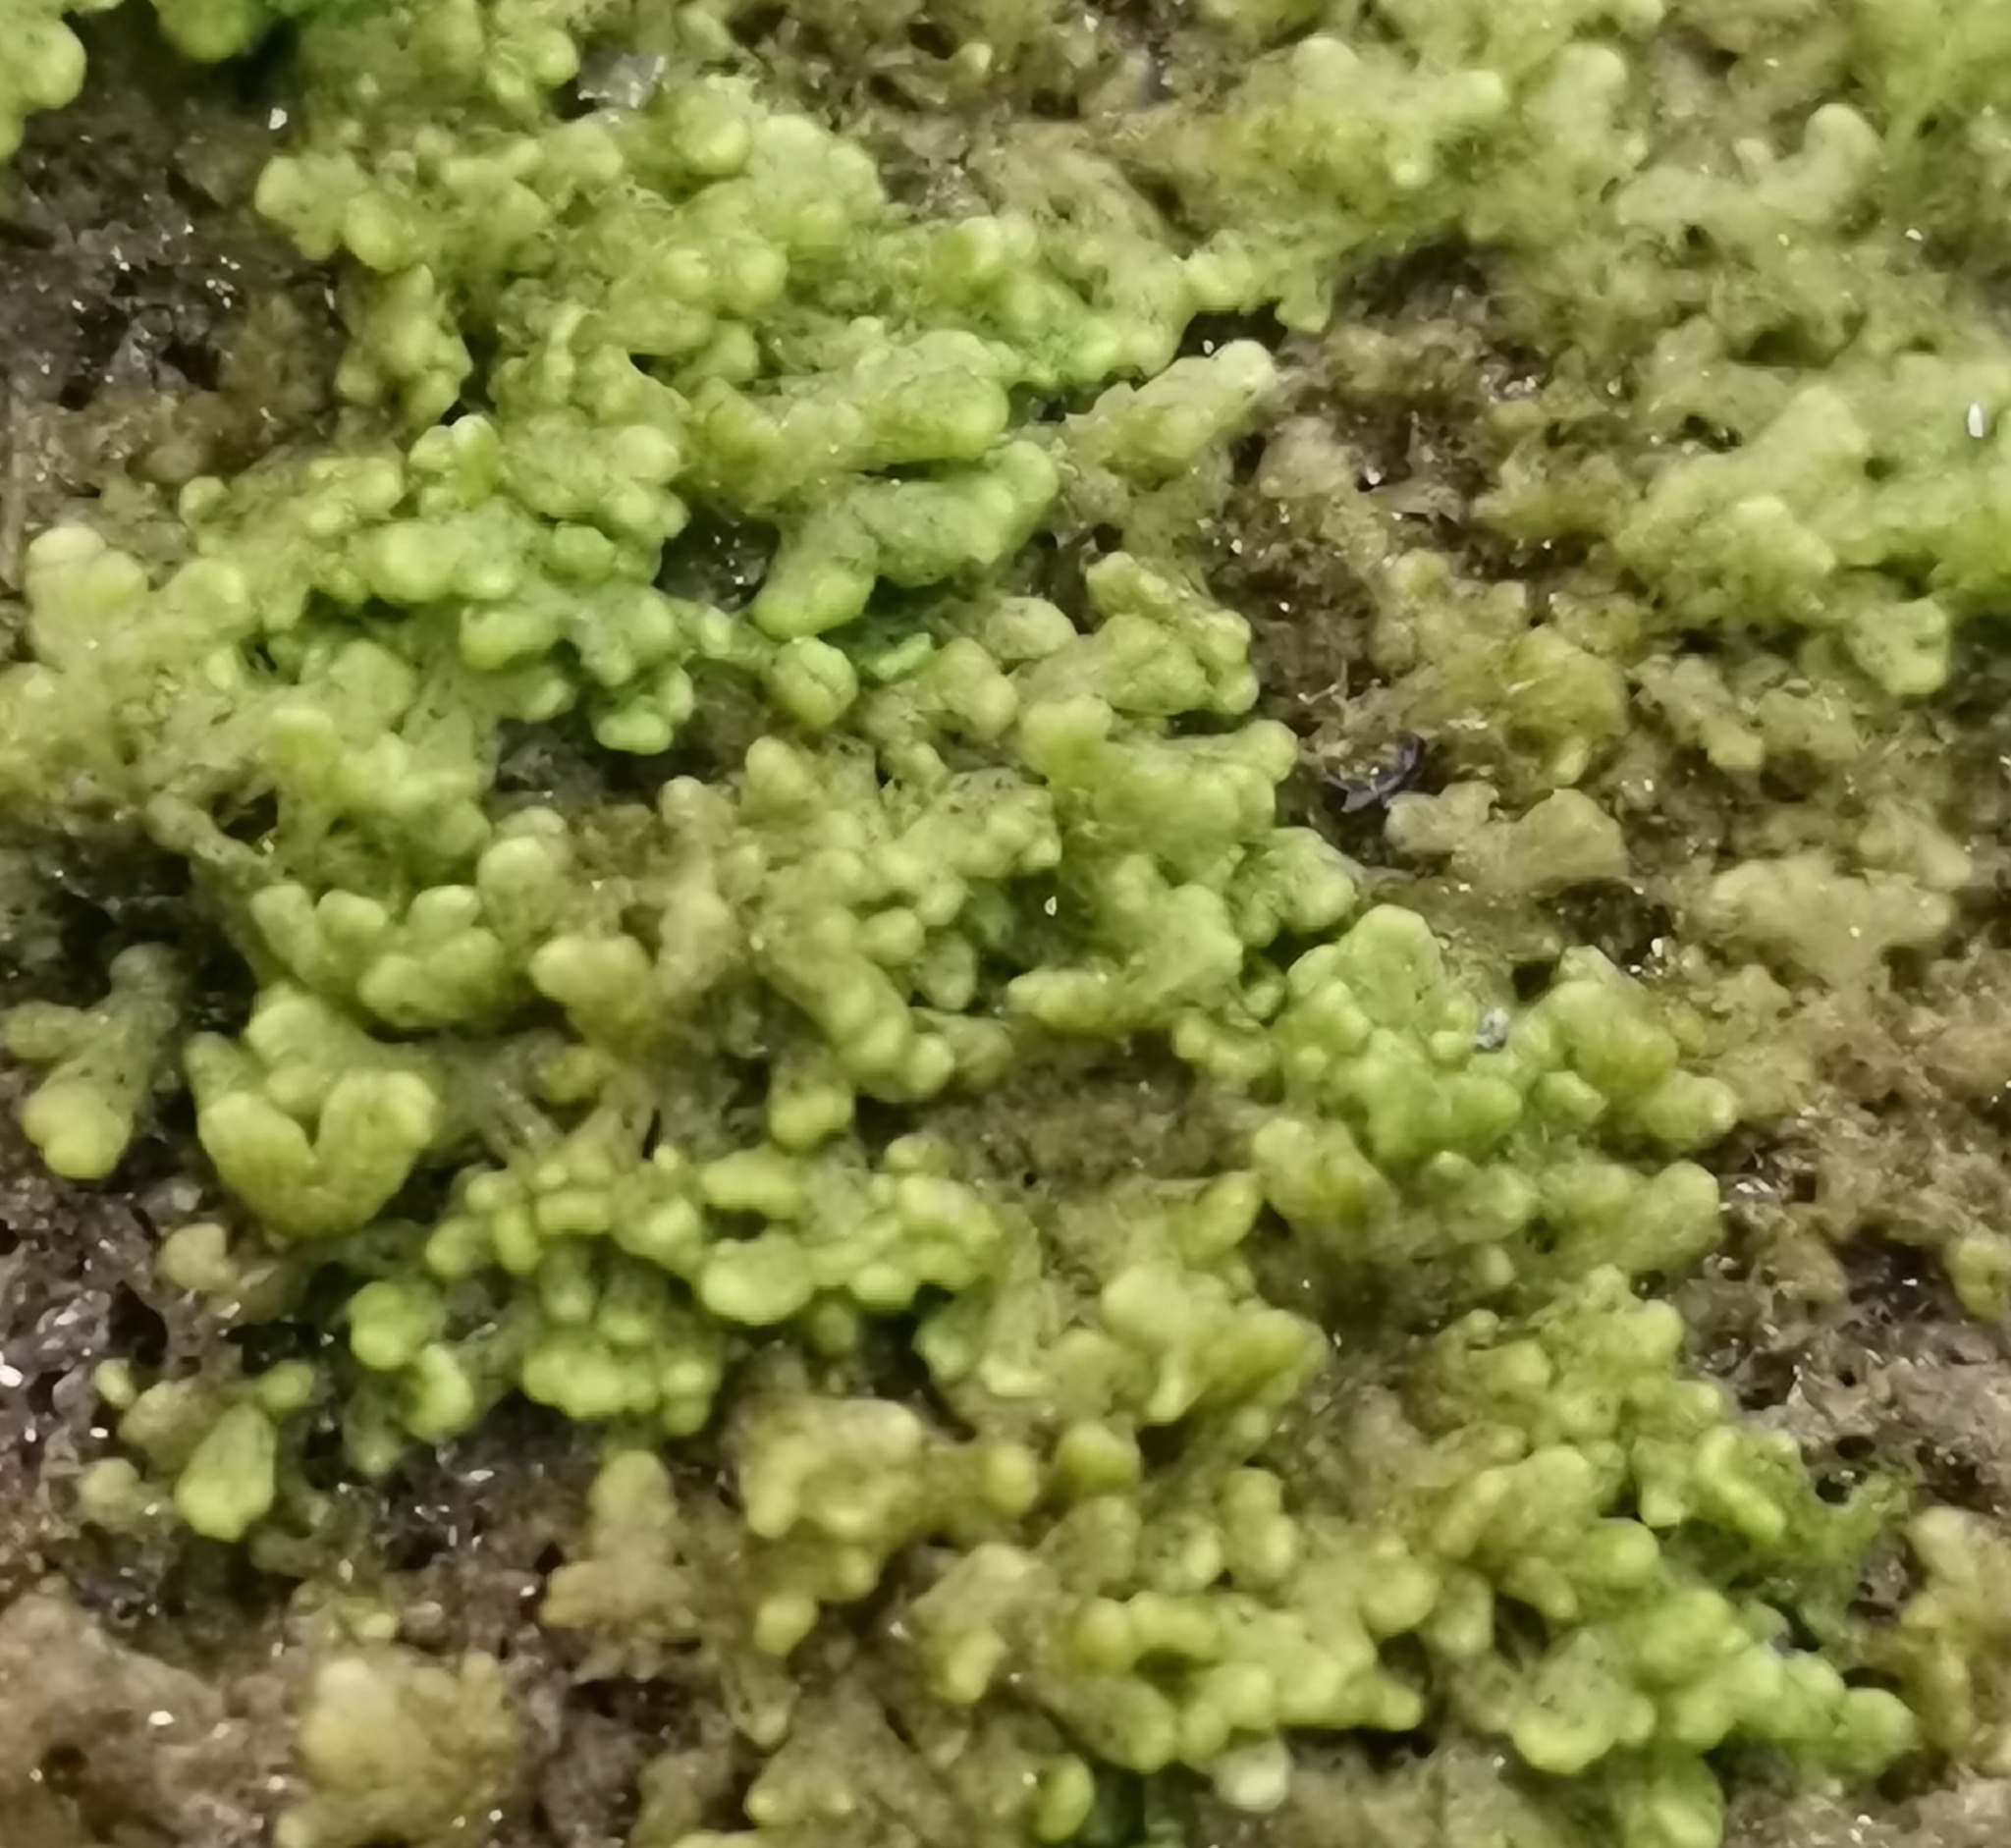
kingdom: Plantae
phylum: Marchantiophyta
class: Jungermanniopsida
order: Ptilidiales
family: Ptilidiaceae
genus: Ptilidium
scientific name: Ptilidium pulcherrimum
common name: Tree fringewort
